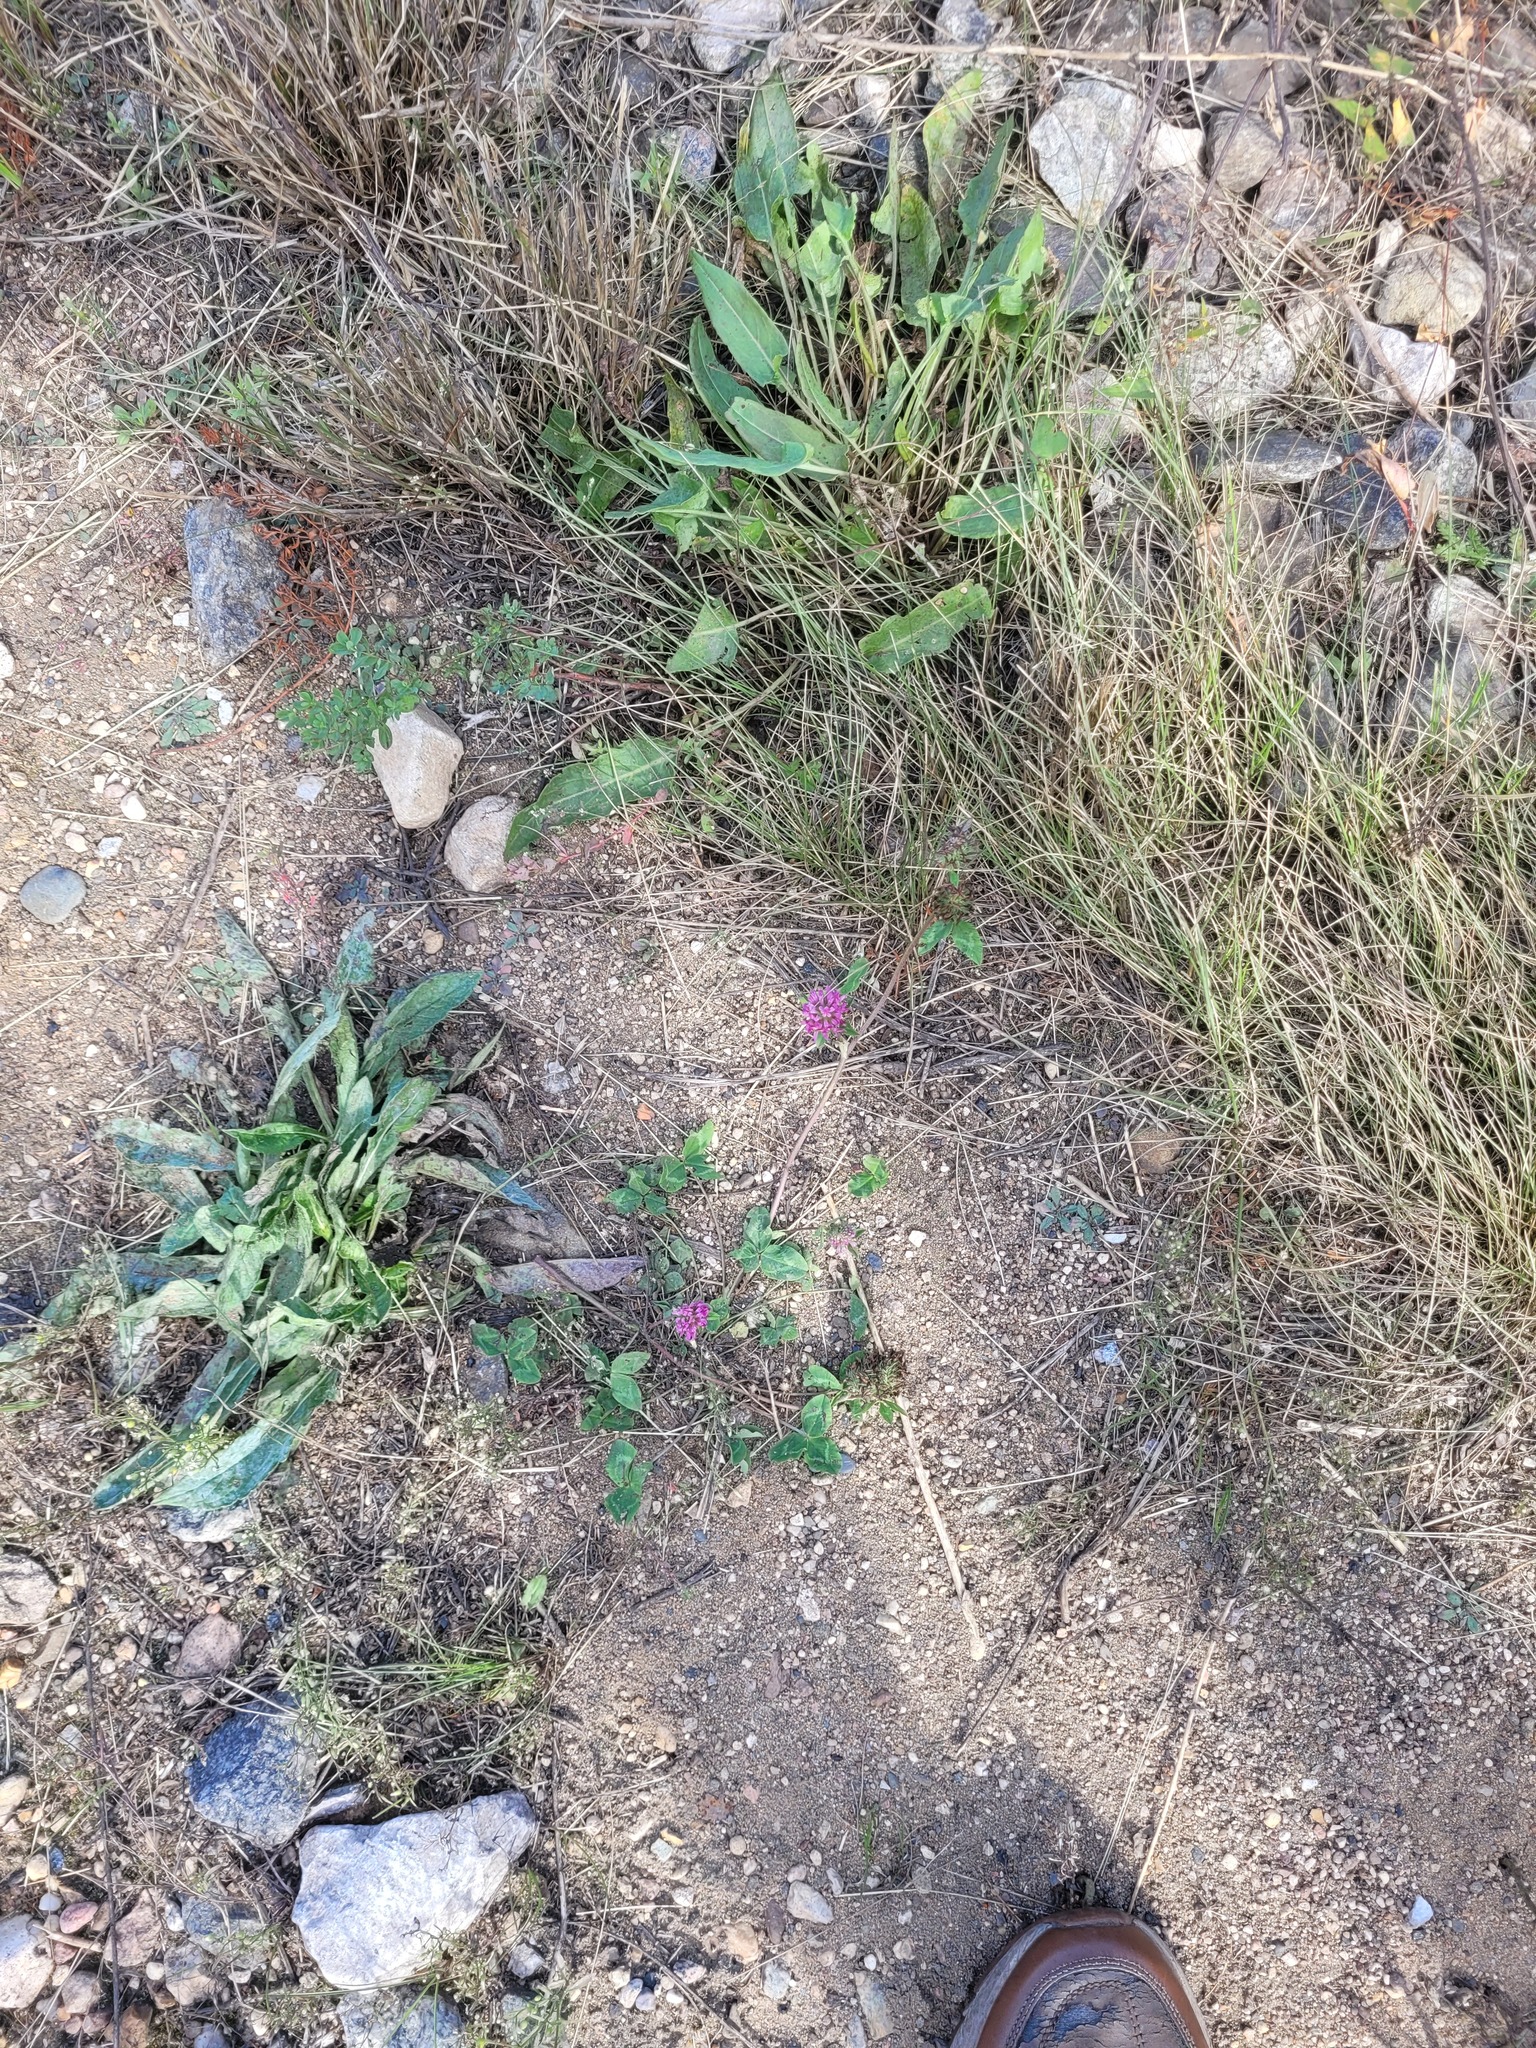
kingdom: Plantae
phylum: Tracheophyta
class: Magnoliopsida
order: Fabales
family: Fabaceae
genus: Trifolium
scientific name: Trifolium pratense
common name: Red clover
